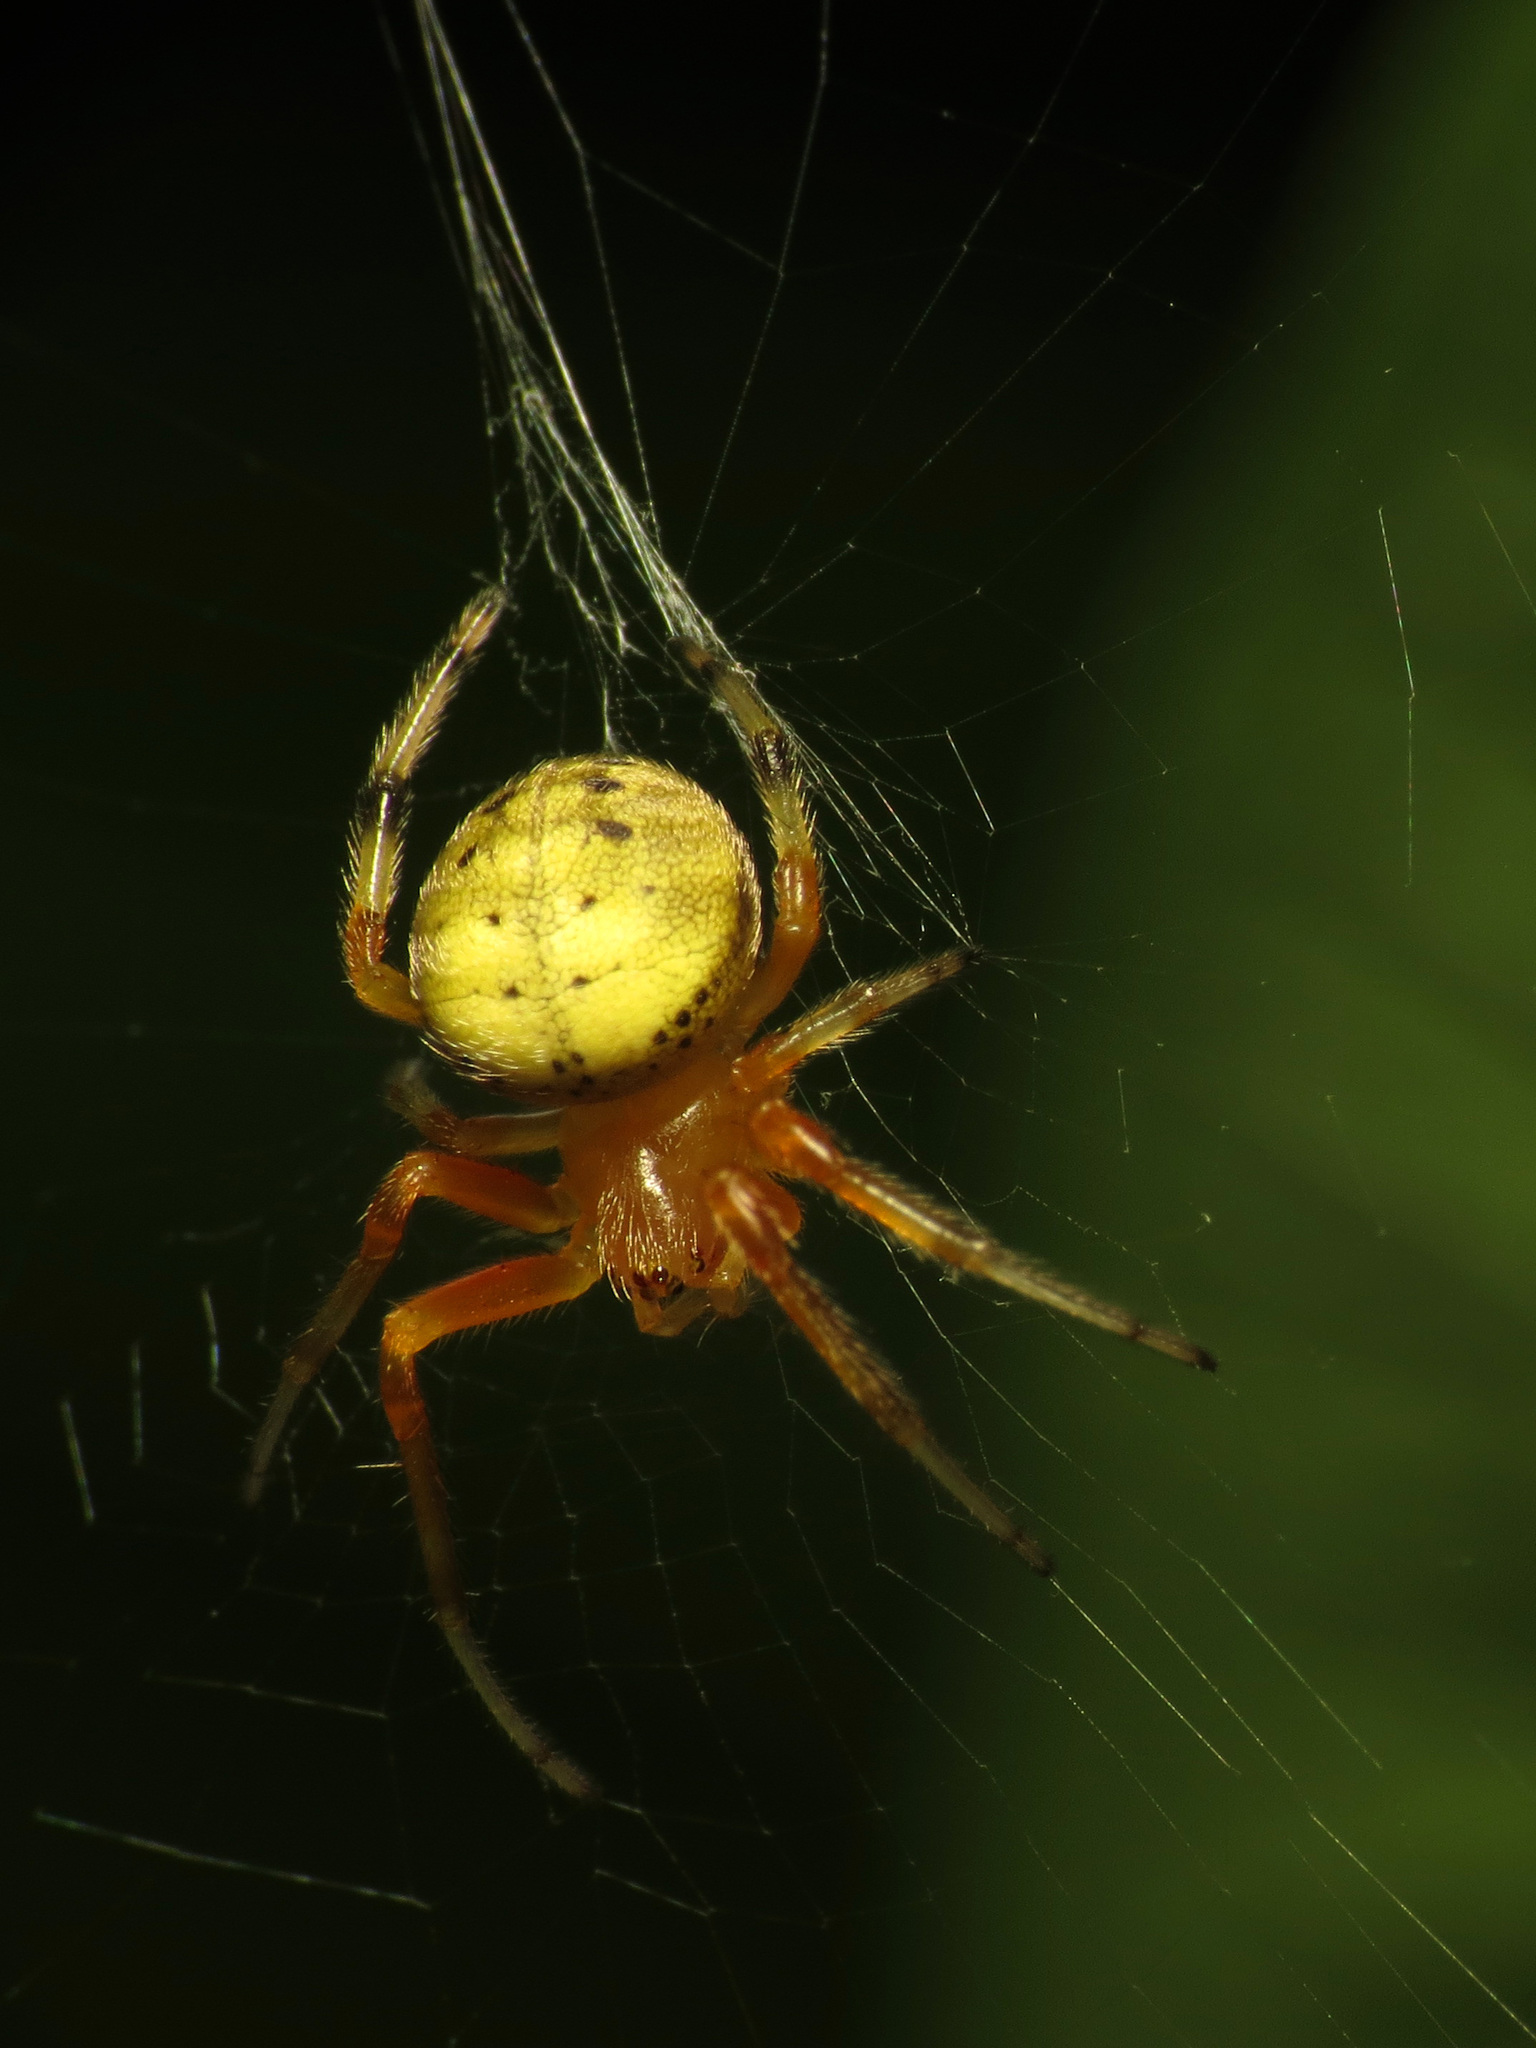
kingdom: Animalia
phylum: Arthropoda
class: Arachnida
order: Araneae
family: Araneidae
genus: Araneus
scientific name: Araneus thaddeus
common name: Lattice orbweaver
